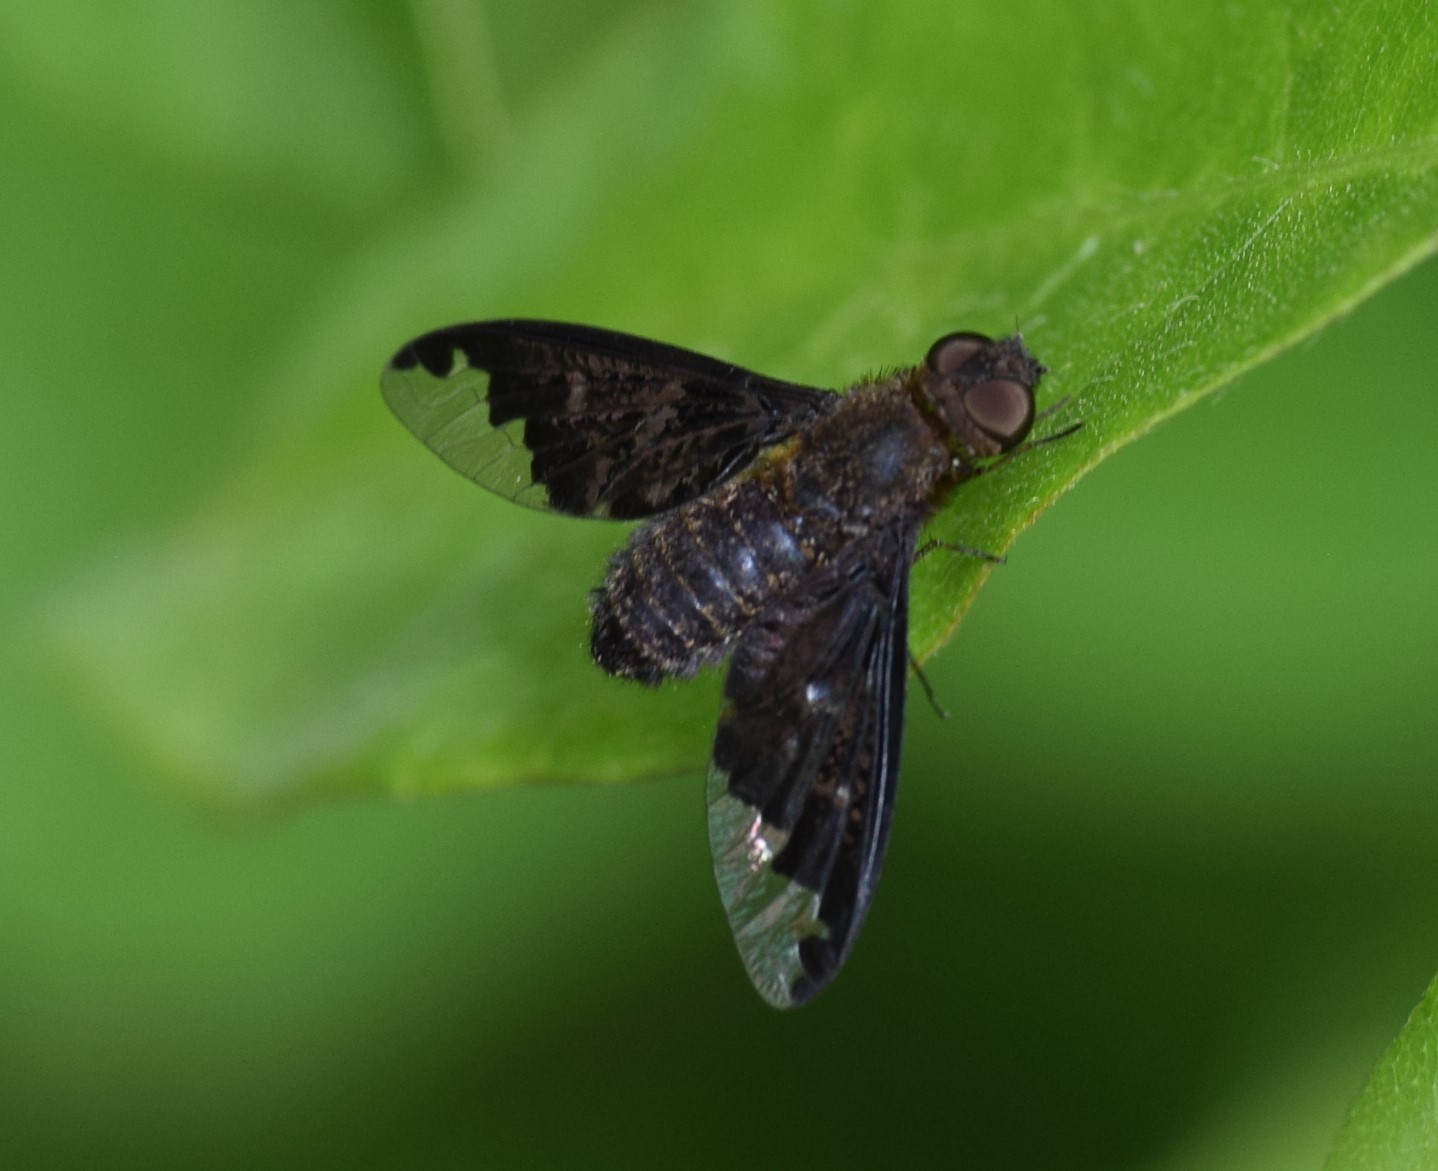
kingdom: Animalia
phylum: Arthropoda
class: Insecta
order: Diptera
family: Bombyliidae
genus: Hemipenthes
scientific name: Hemipenthes sinuosus
